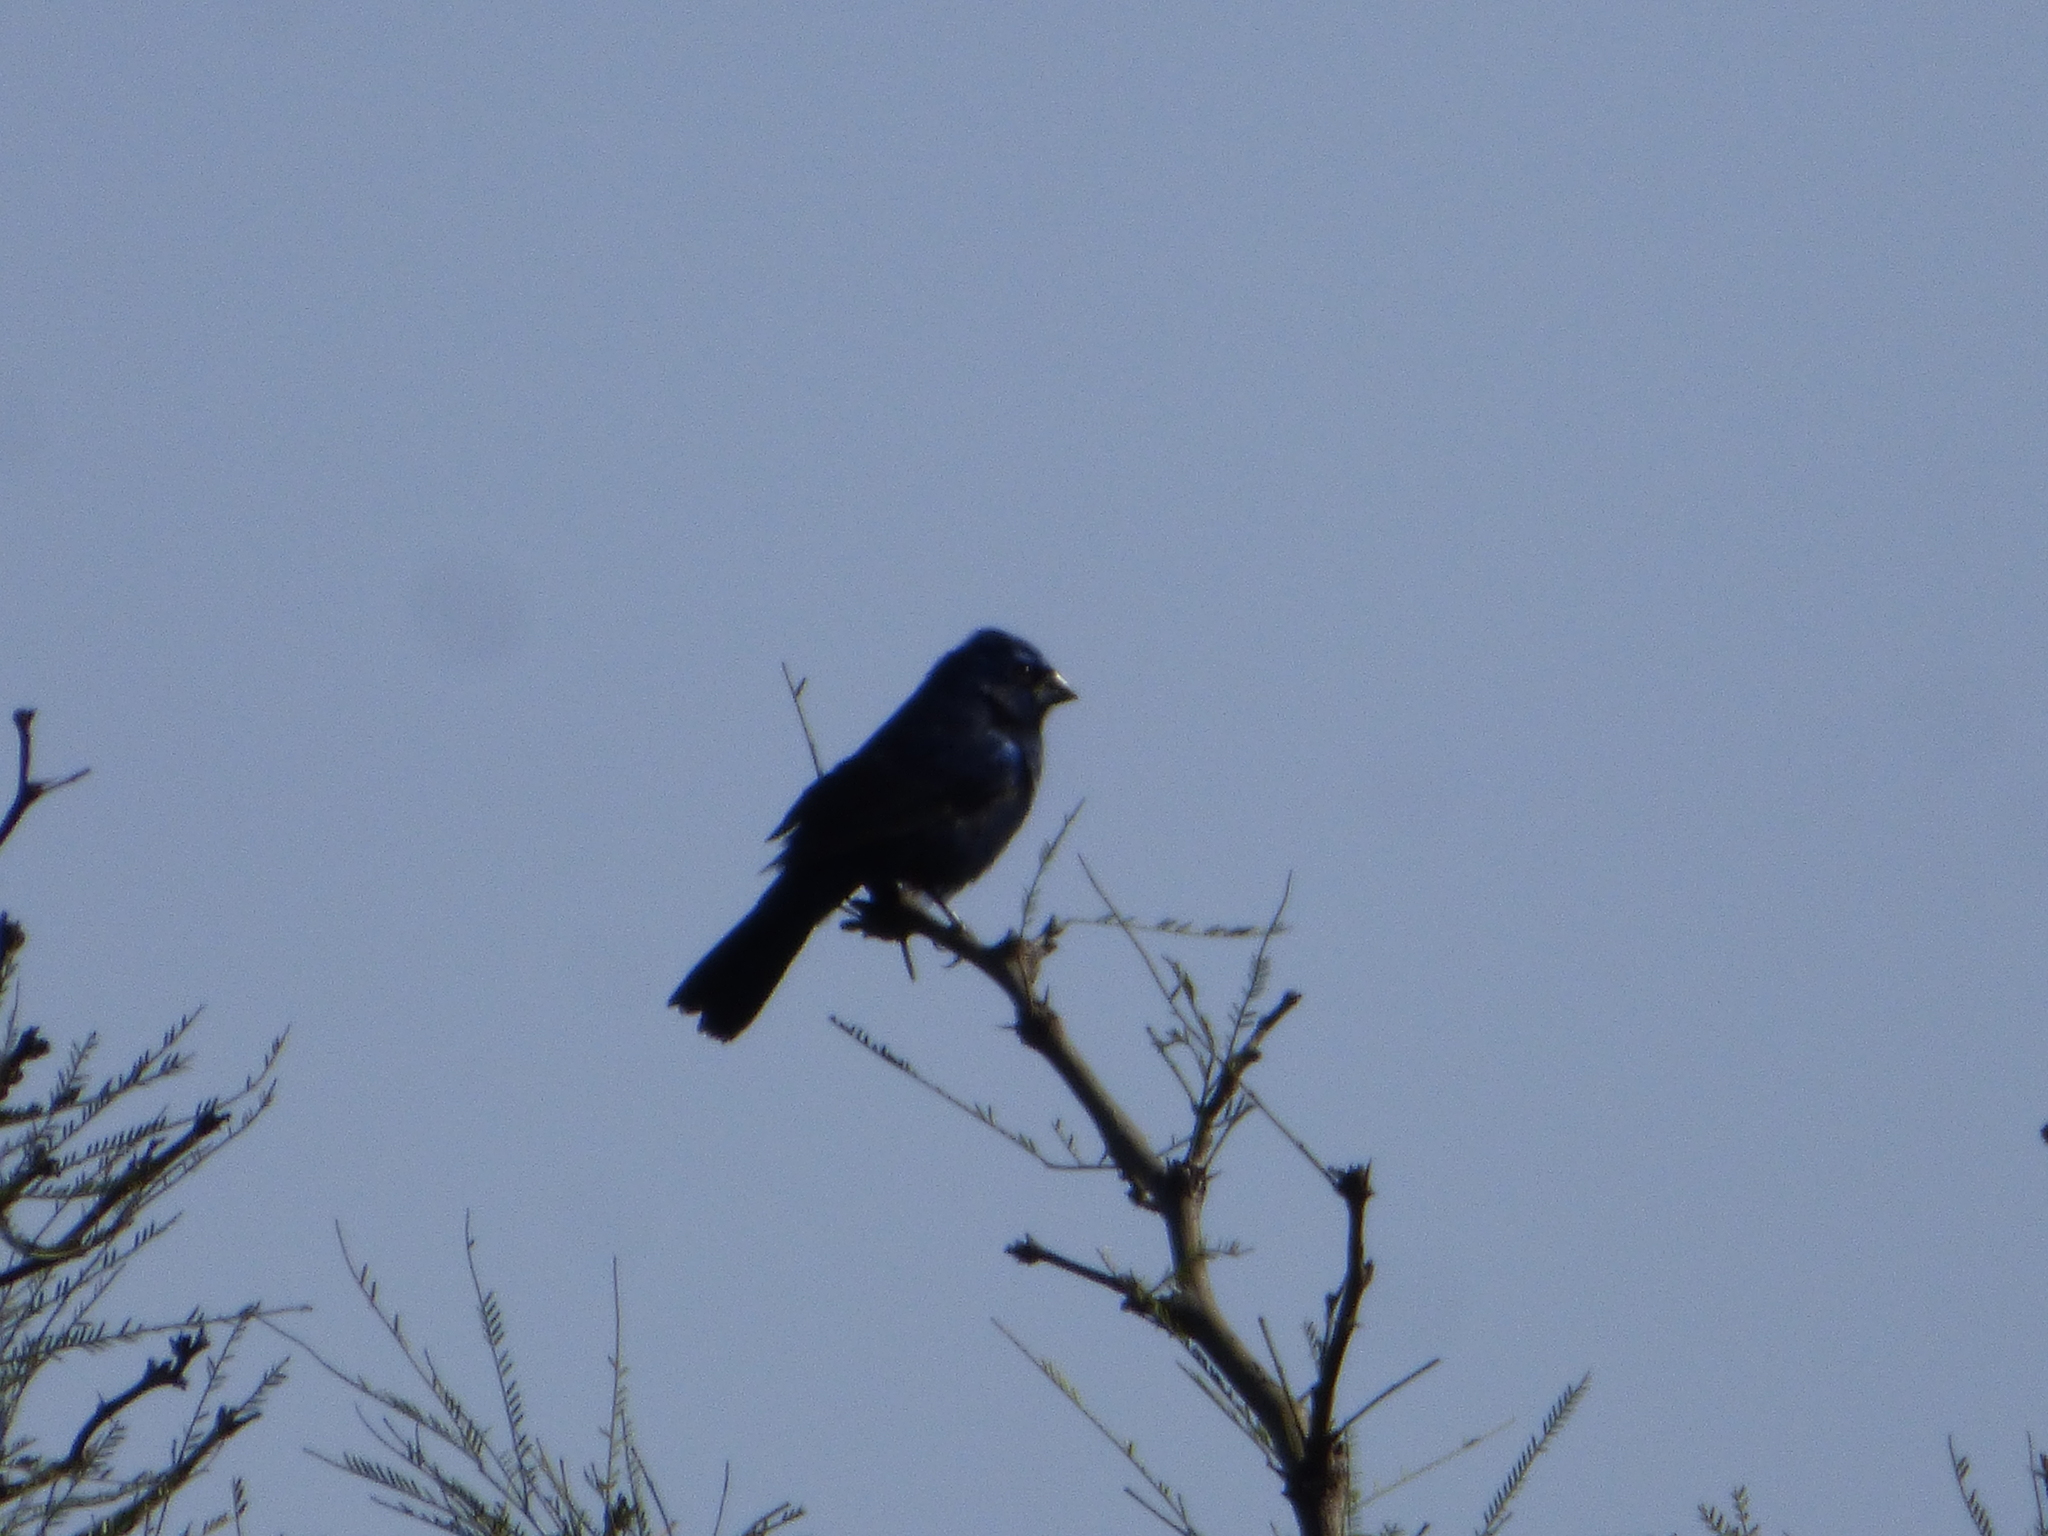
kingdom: Animalia
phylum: Chordata
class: Aves
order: Passeriformes
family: Cardinalidae
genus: Cyanoloxia
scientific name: Cyanoloxia brissonii
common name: Ultramarine grosbeak
